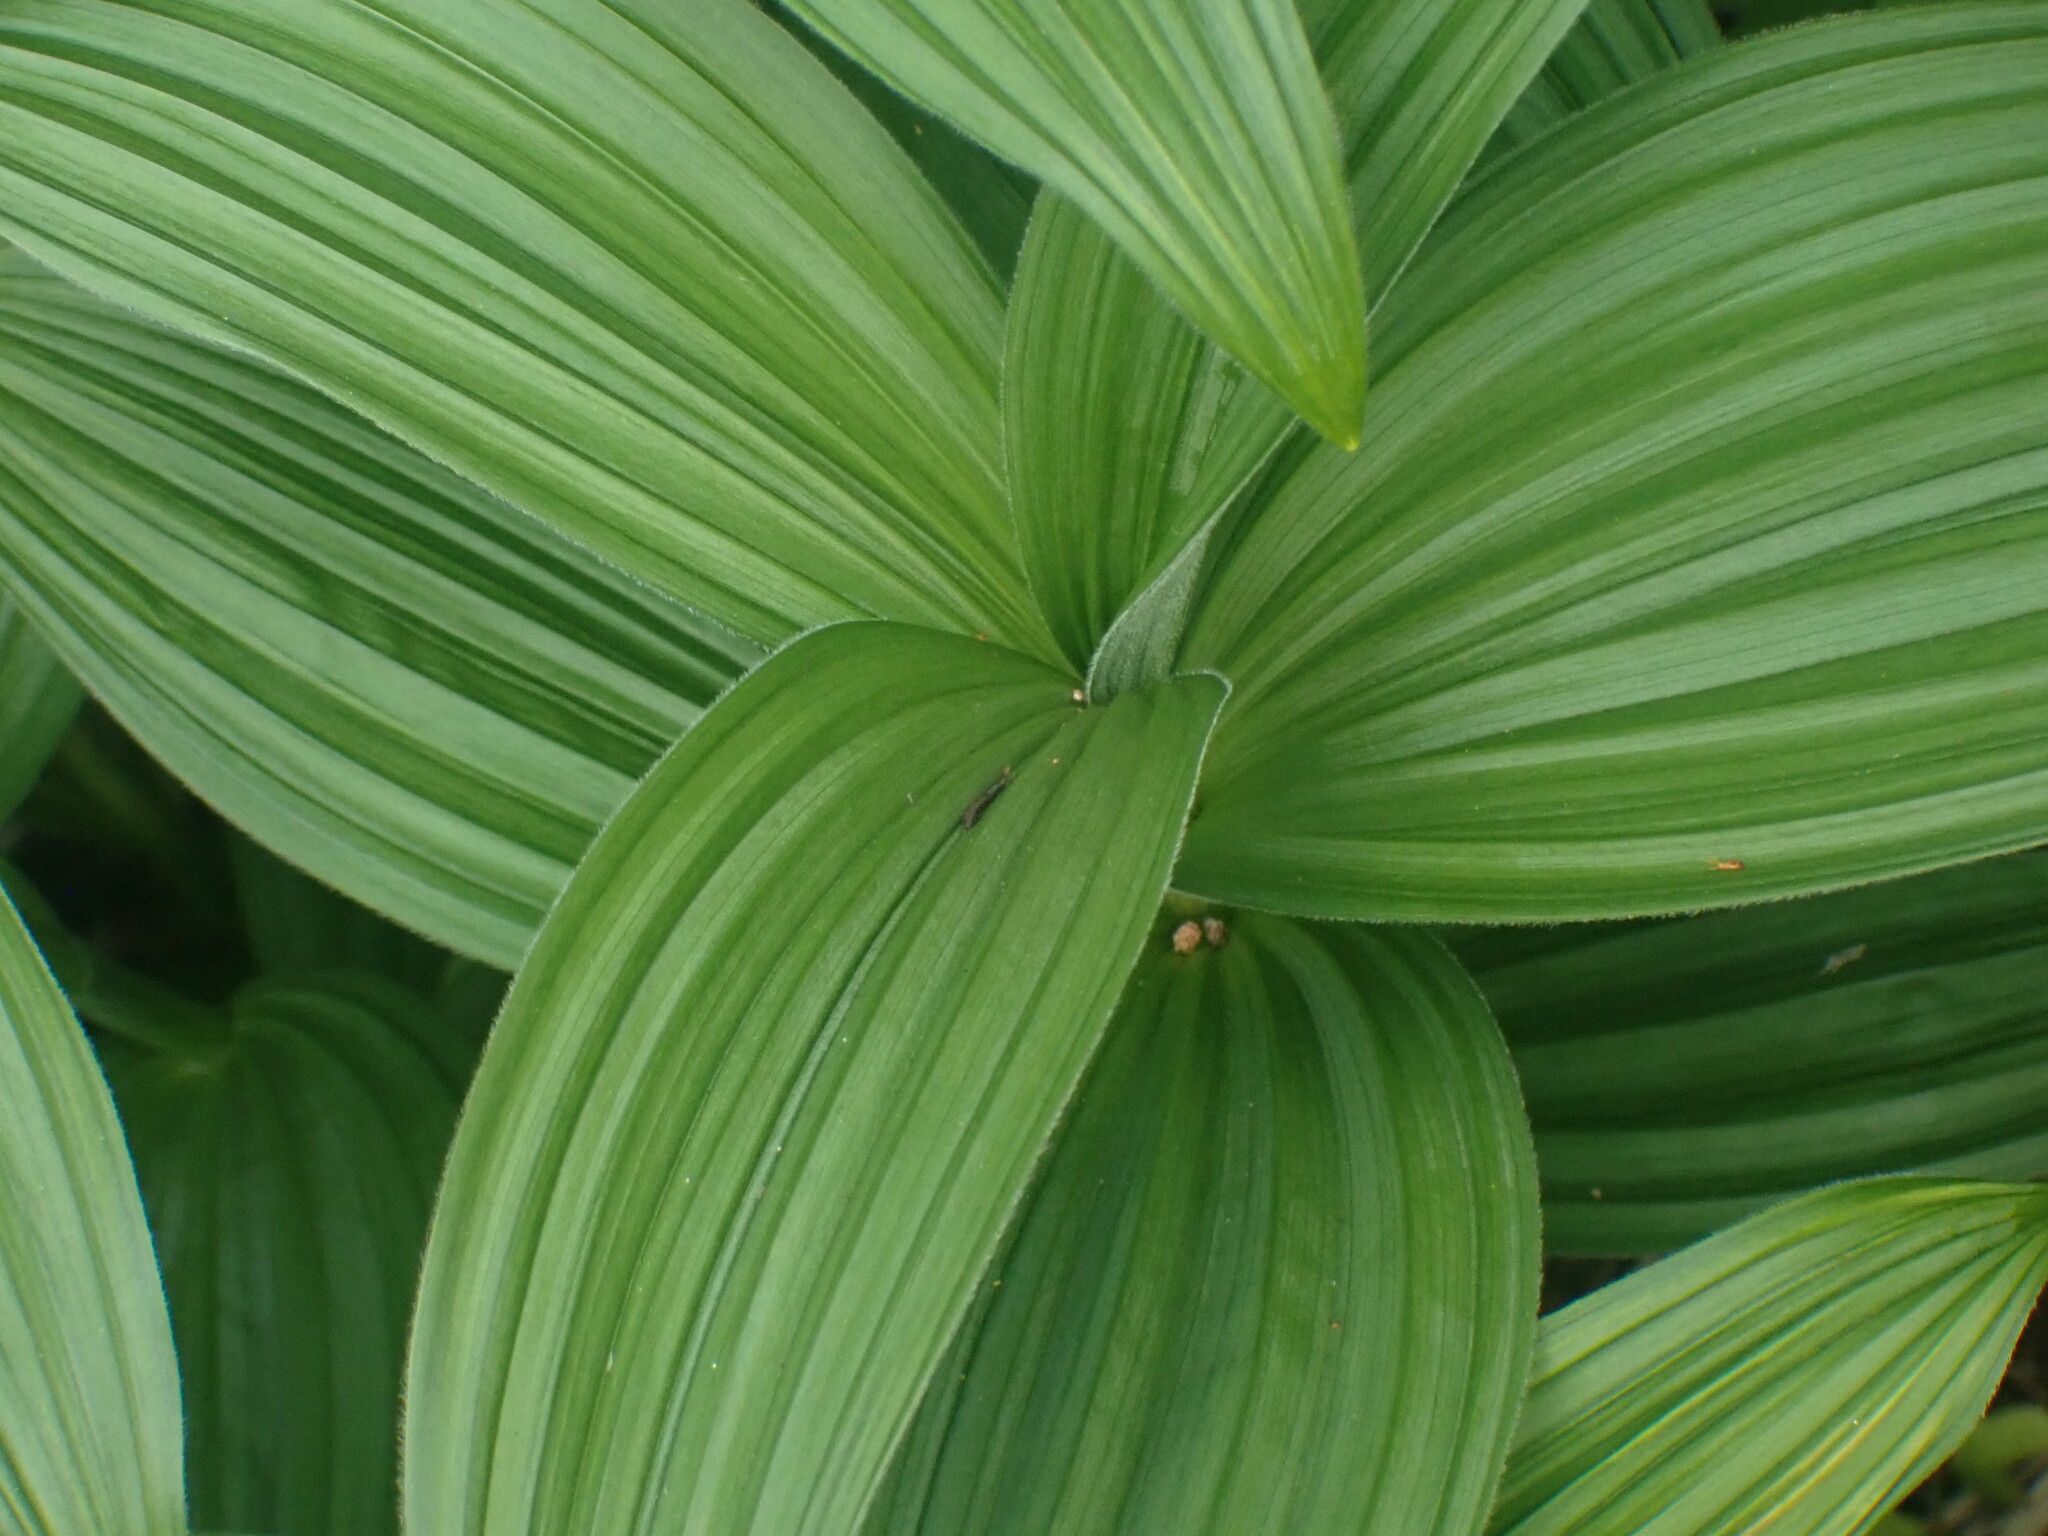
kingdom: Plantae
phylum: Tracheophyta
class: Liliopsida
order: Liliales
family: Melanthiaceae
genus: Veratrum
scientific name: Veratrum viride
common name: American false hellebore
